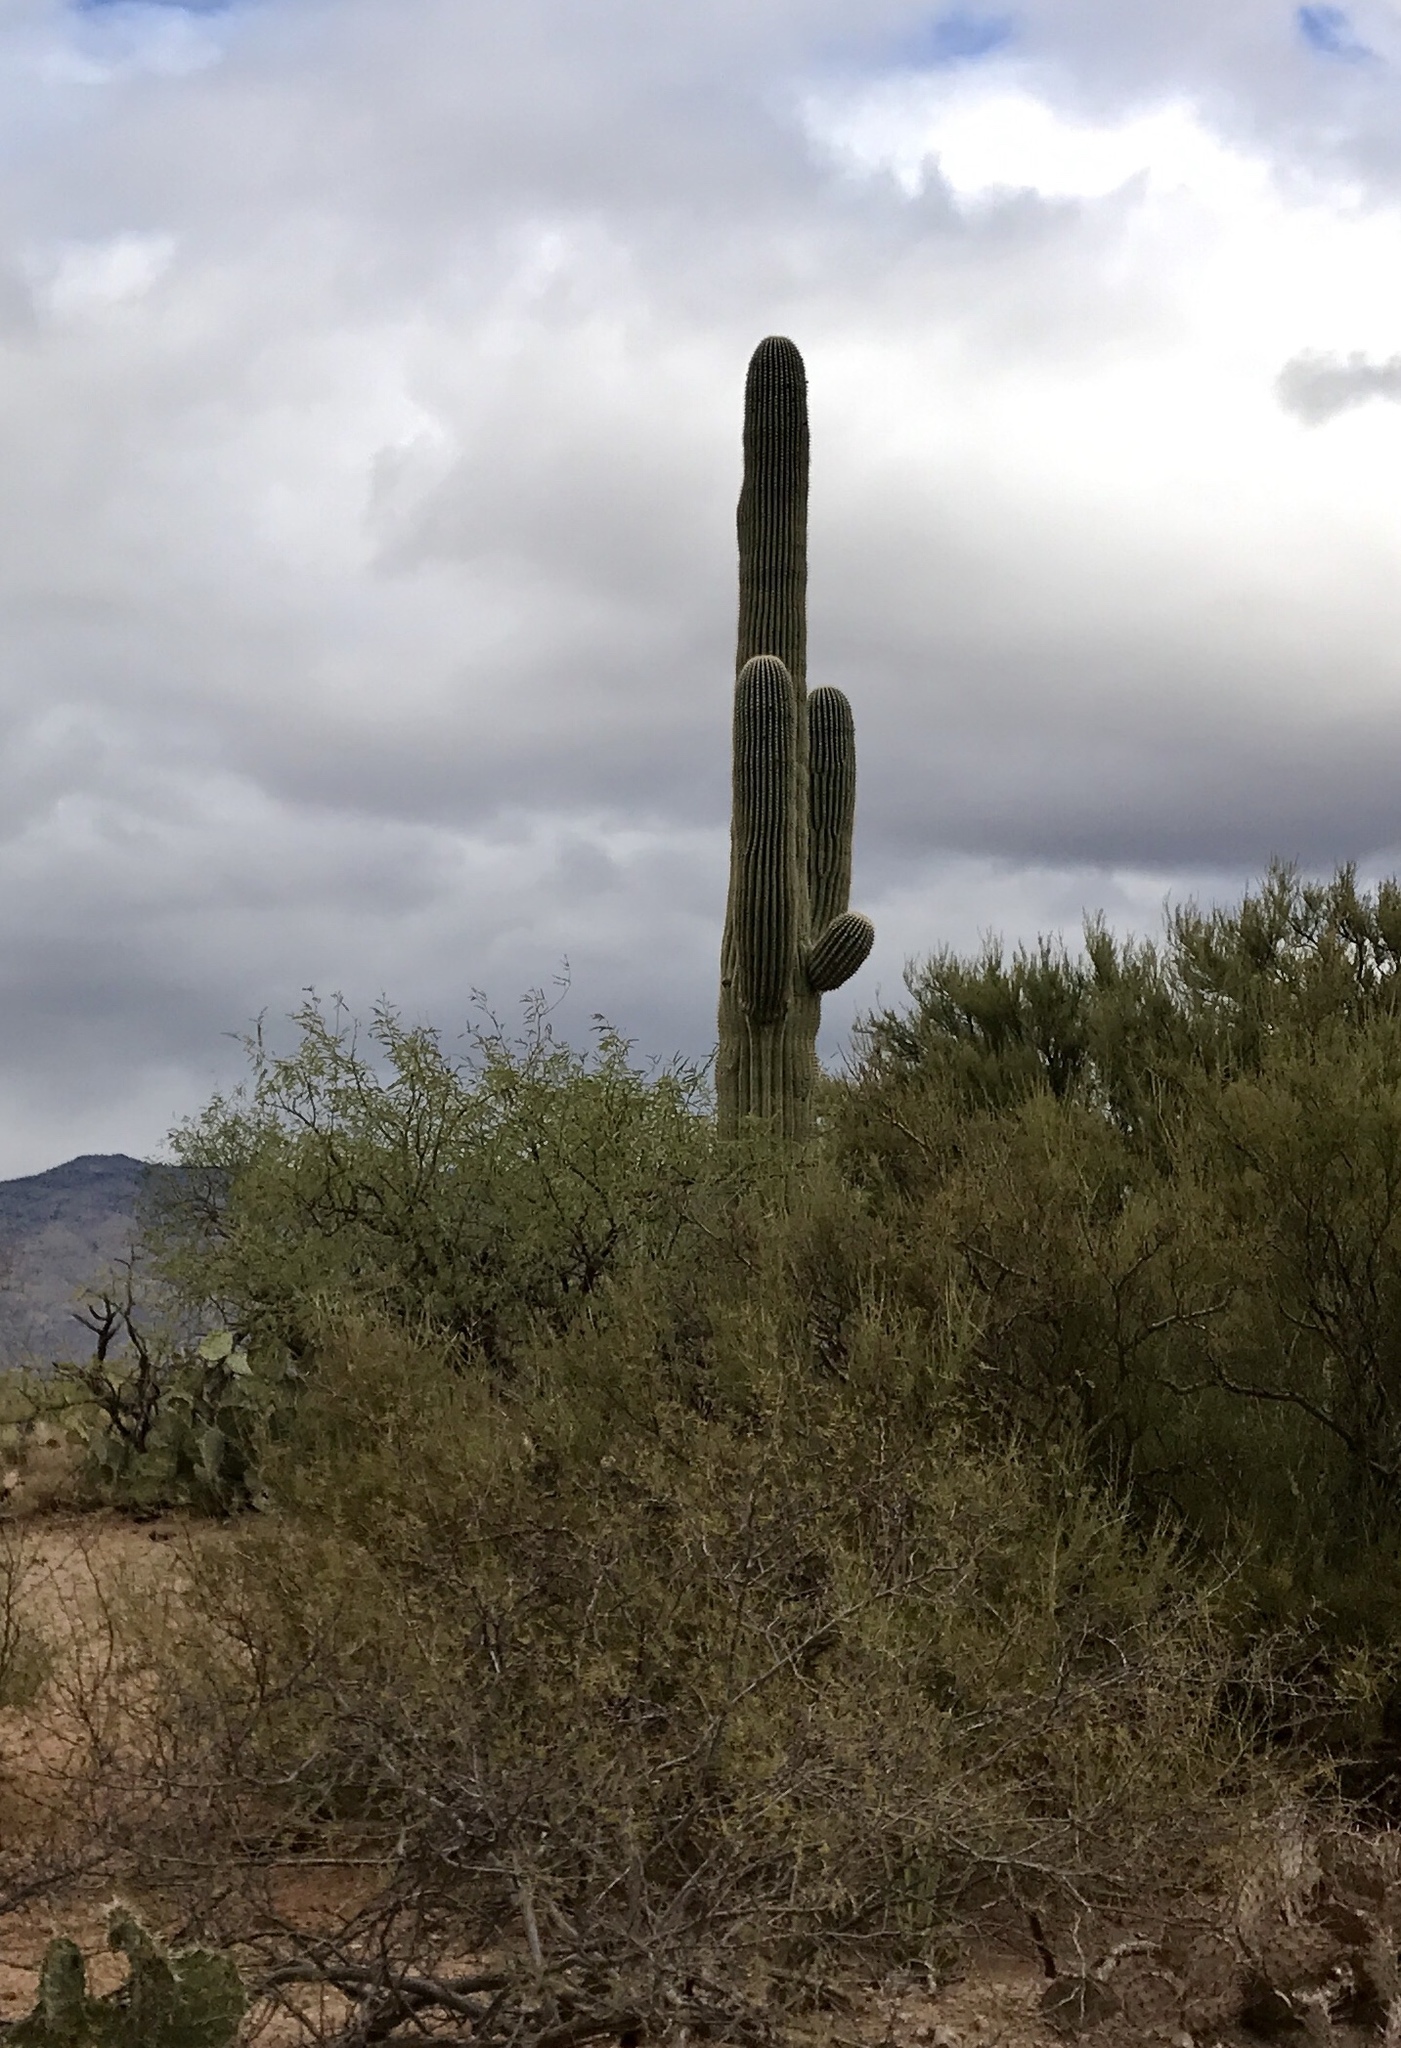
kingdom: Plantae
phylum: Tracheophyta
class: Magnoliopsida
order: Caryophyllales
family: Cactaceae
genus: Carnegiea
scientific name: Carnegiea gigantea
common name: Saguaro
